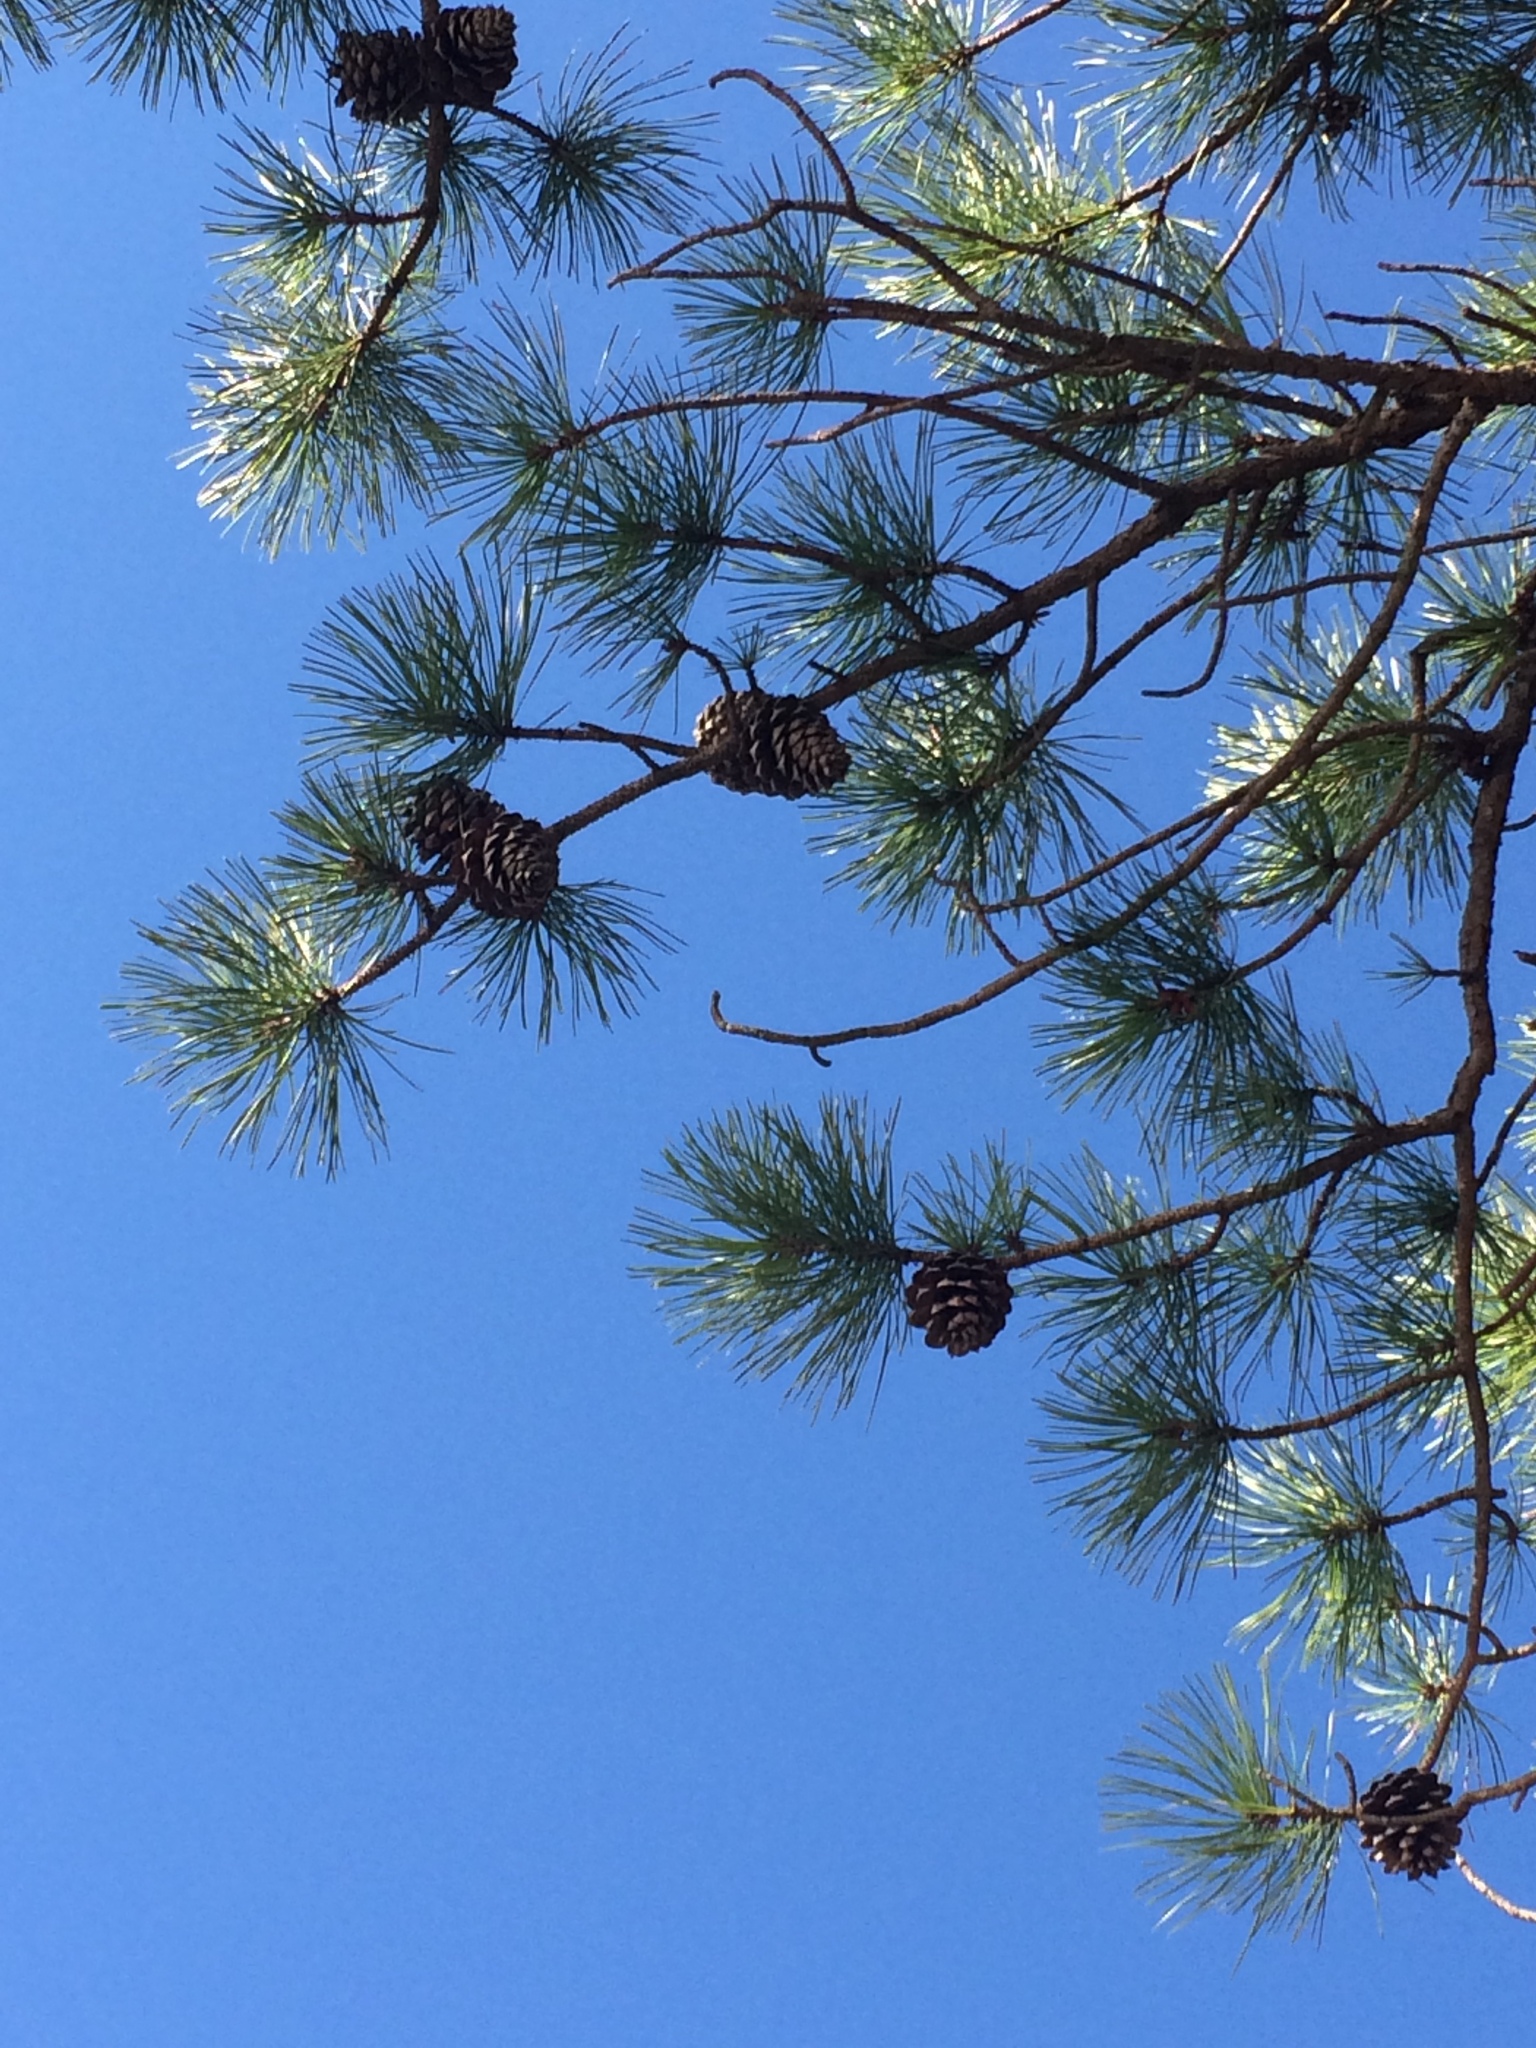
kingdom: Plantae
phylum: Tracheophyta
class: Pinopsida
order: Pinales
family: Pinaceae
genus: Pinus
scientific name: Pinus rigida
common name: Pitch pine
